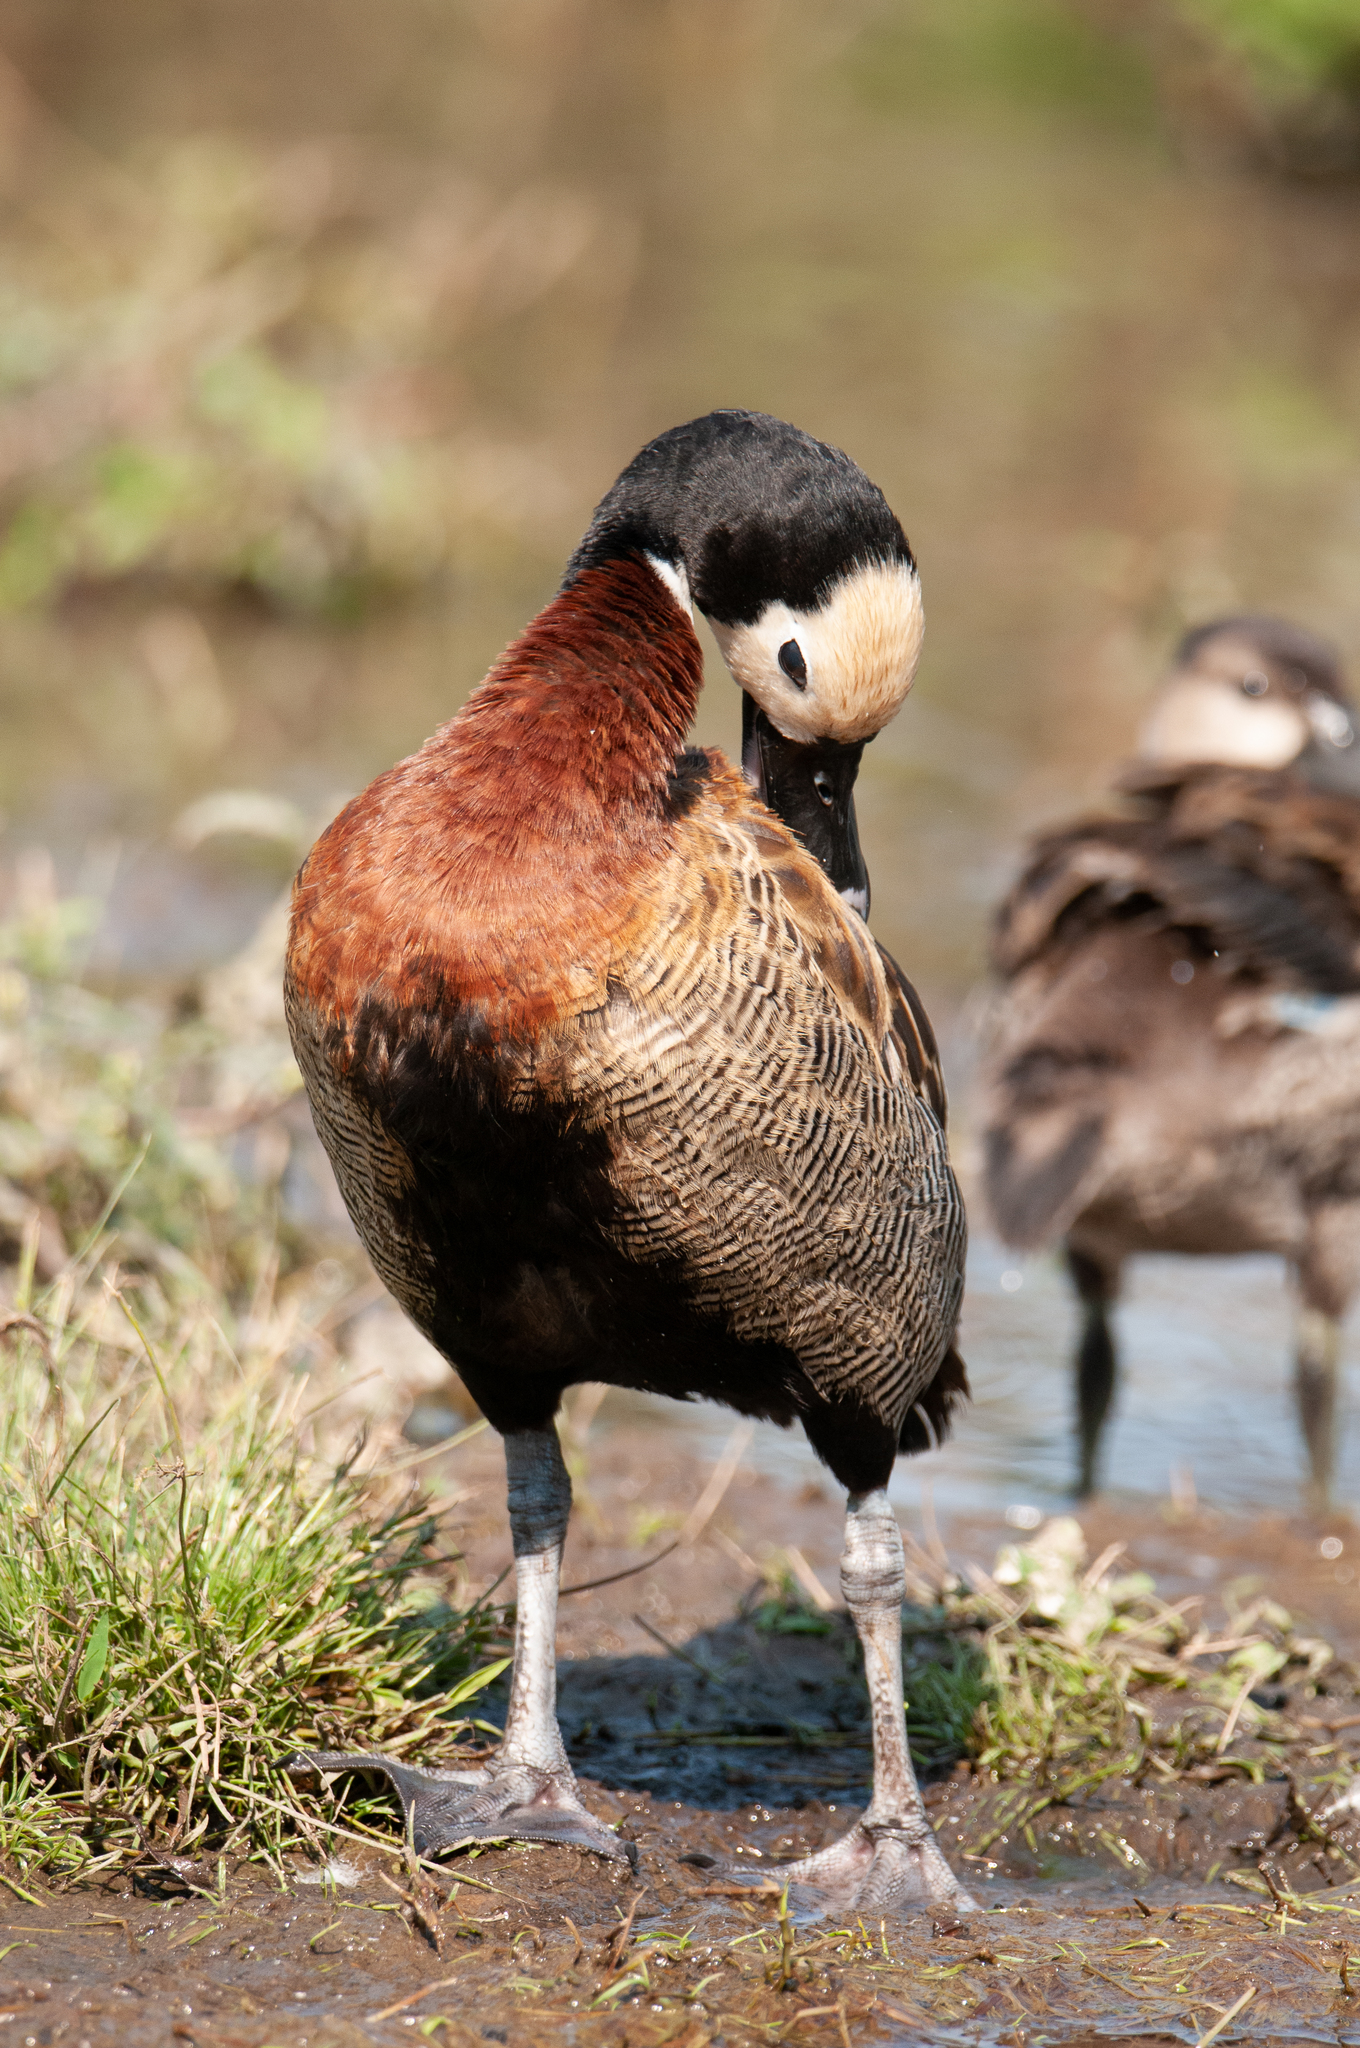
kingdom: Animalia
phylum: Chordata
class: Aves
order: Anseriformes
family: Anatidae
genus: Dendrocygna
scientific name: Dendrocygna viduata
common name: White-faced whistling duck
